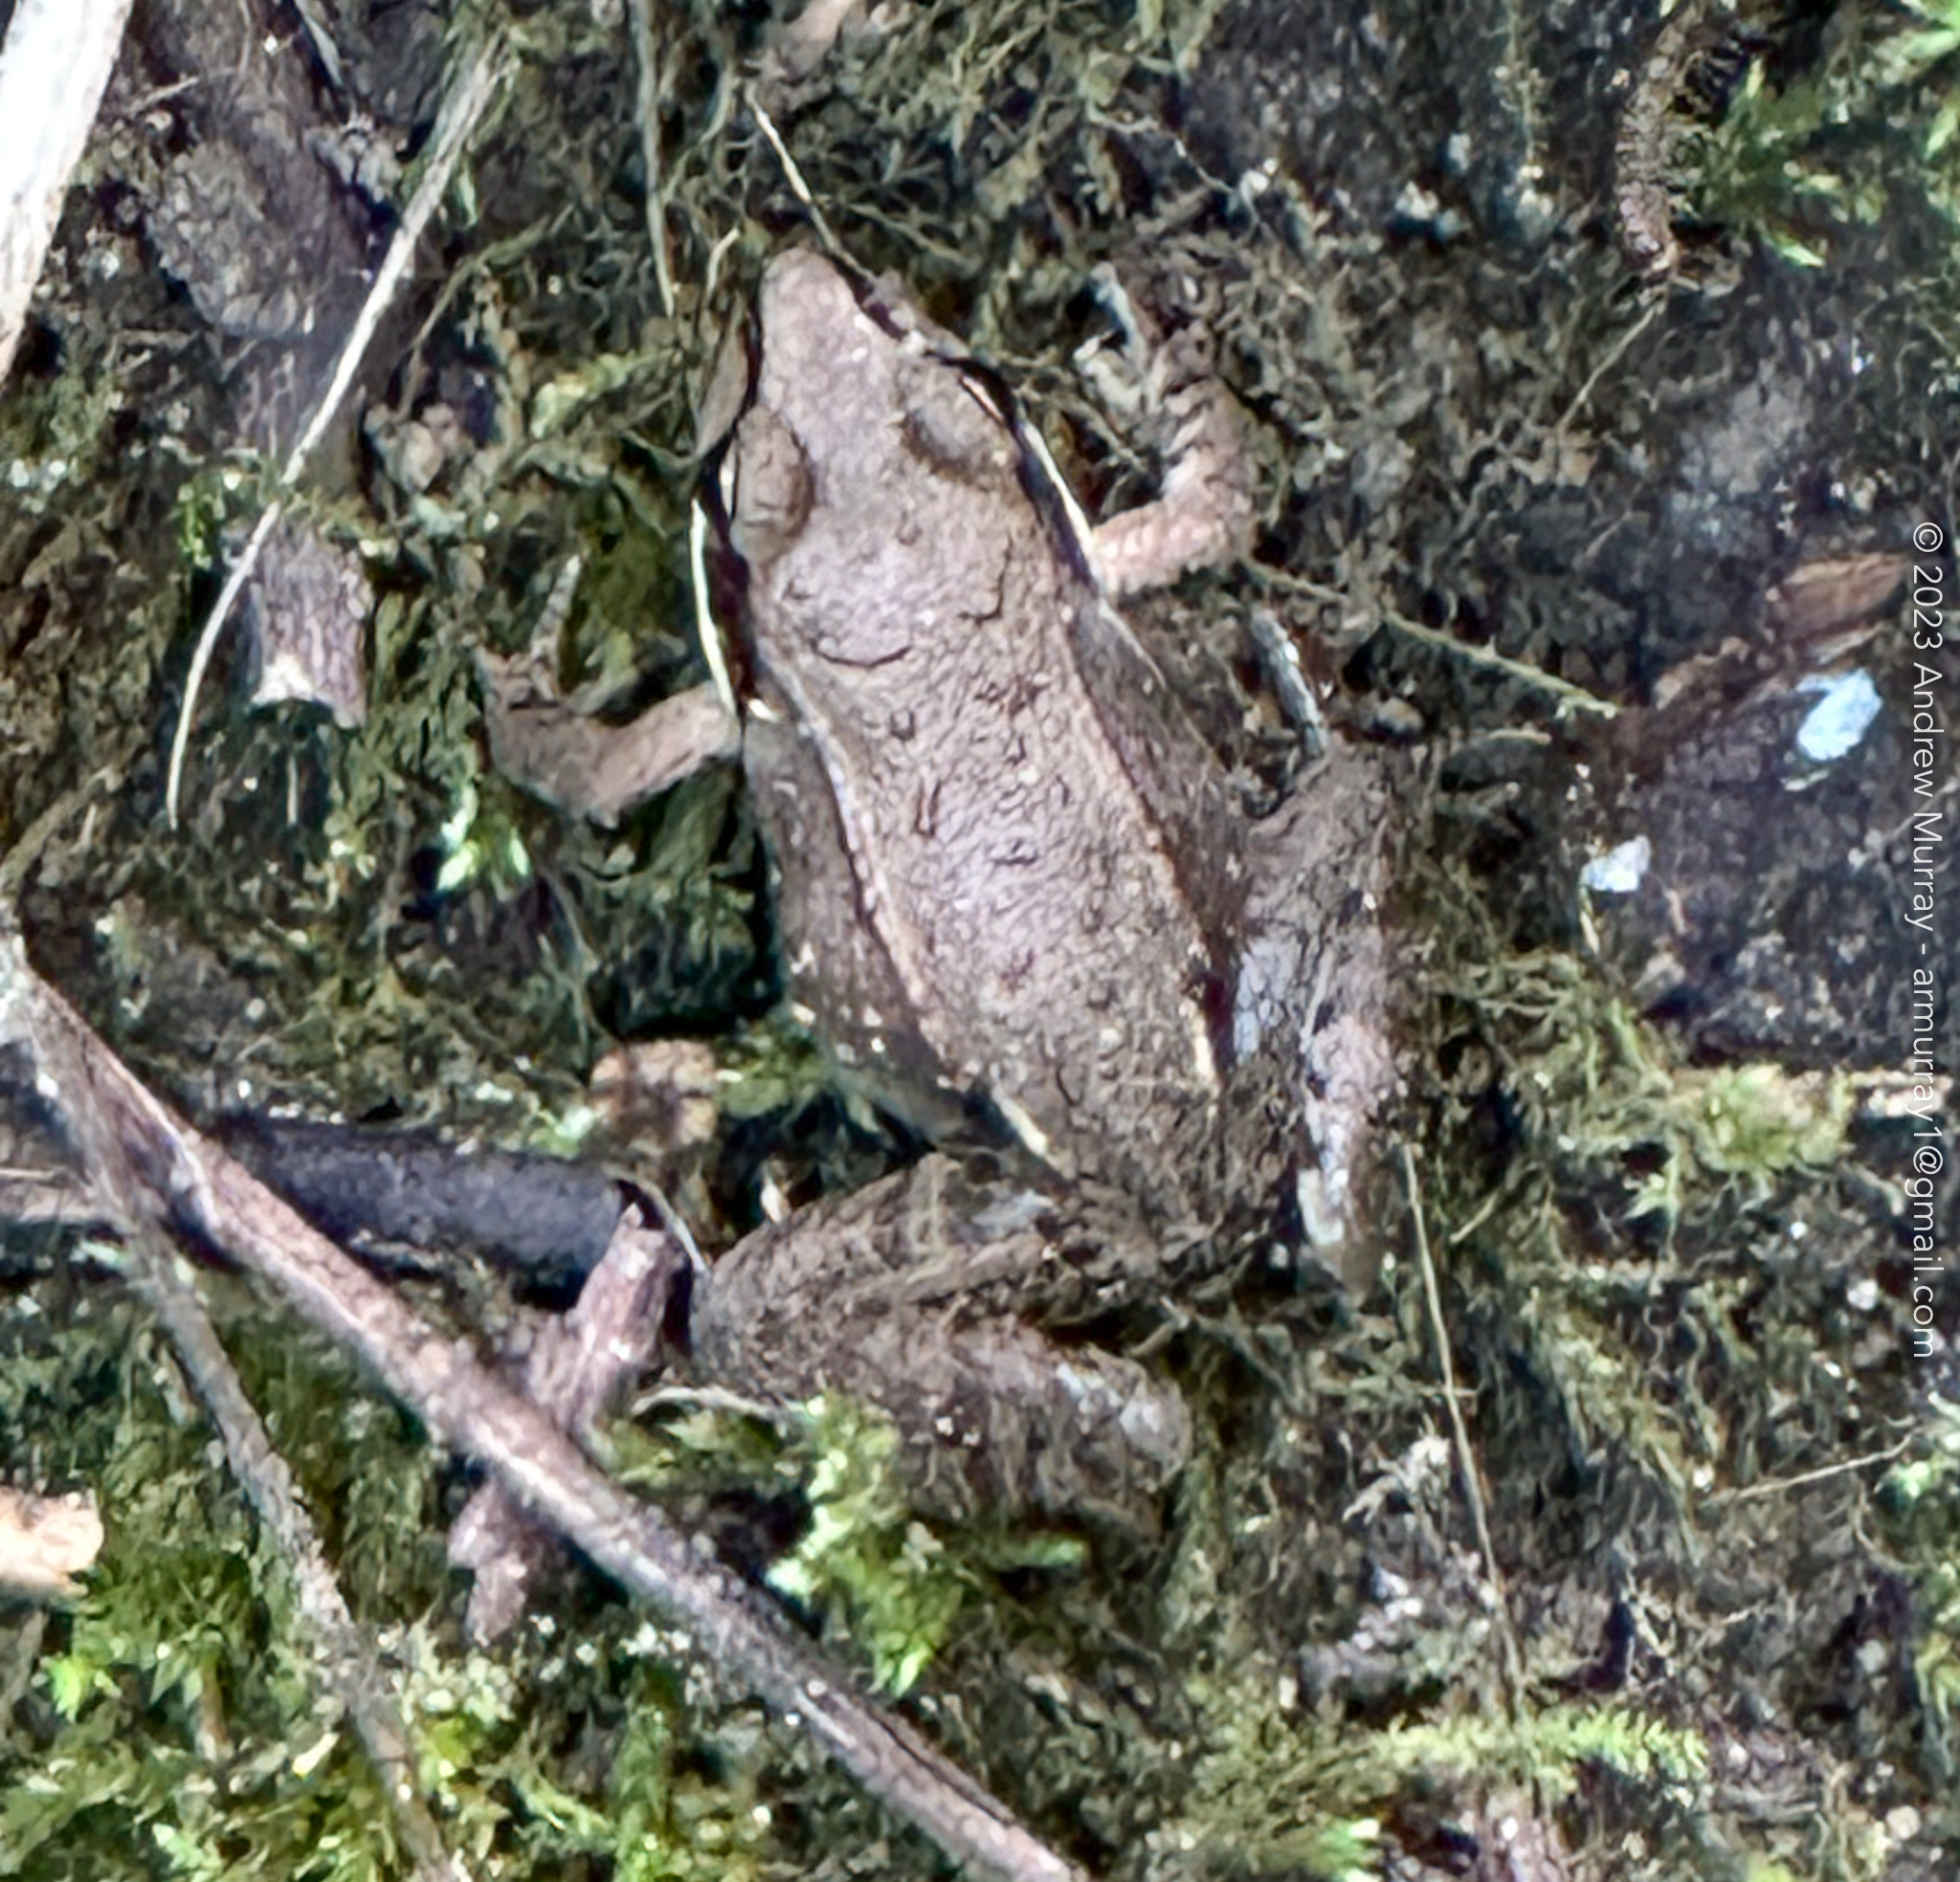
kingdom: Animalia
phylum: Chordata
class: Amphibia
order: Anura
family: Ranidae
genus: Lithobates
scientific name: Lithobates sylvaticus
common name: Wood frog
